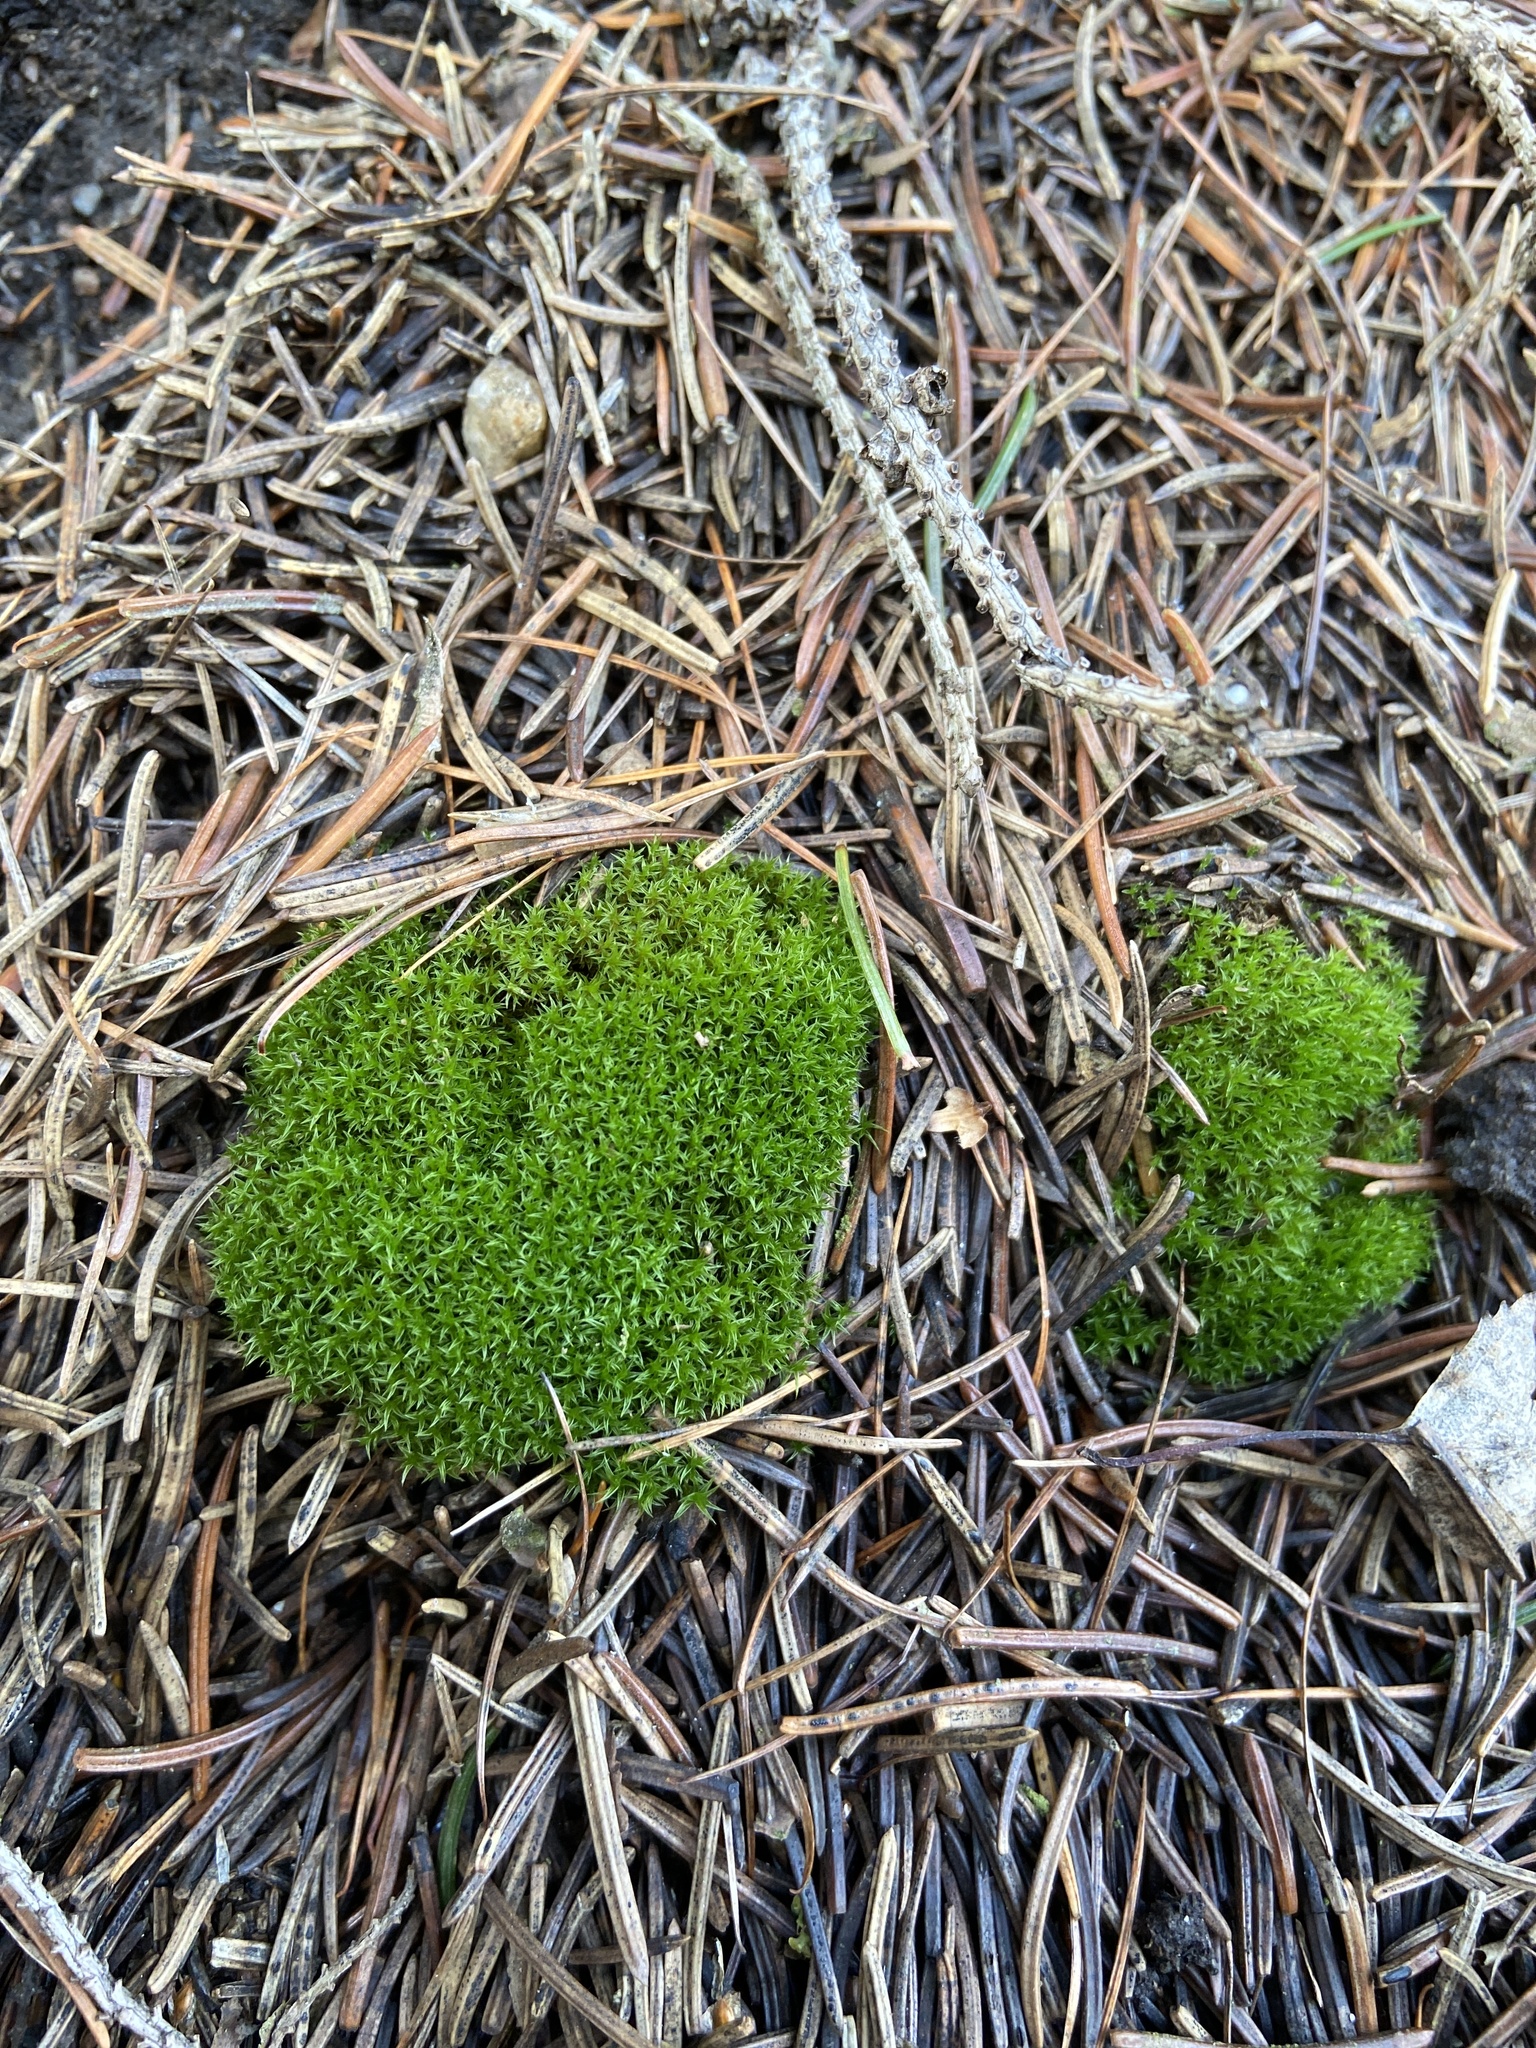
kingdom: Plantae
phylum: Bryophyta
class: Bryopsida
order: Dicranales
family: Ditrichaceae
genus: Ceratodon
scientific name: Ceratodon purpureus
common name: Redshank
